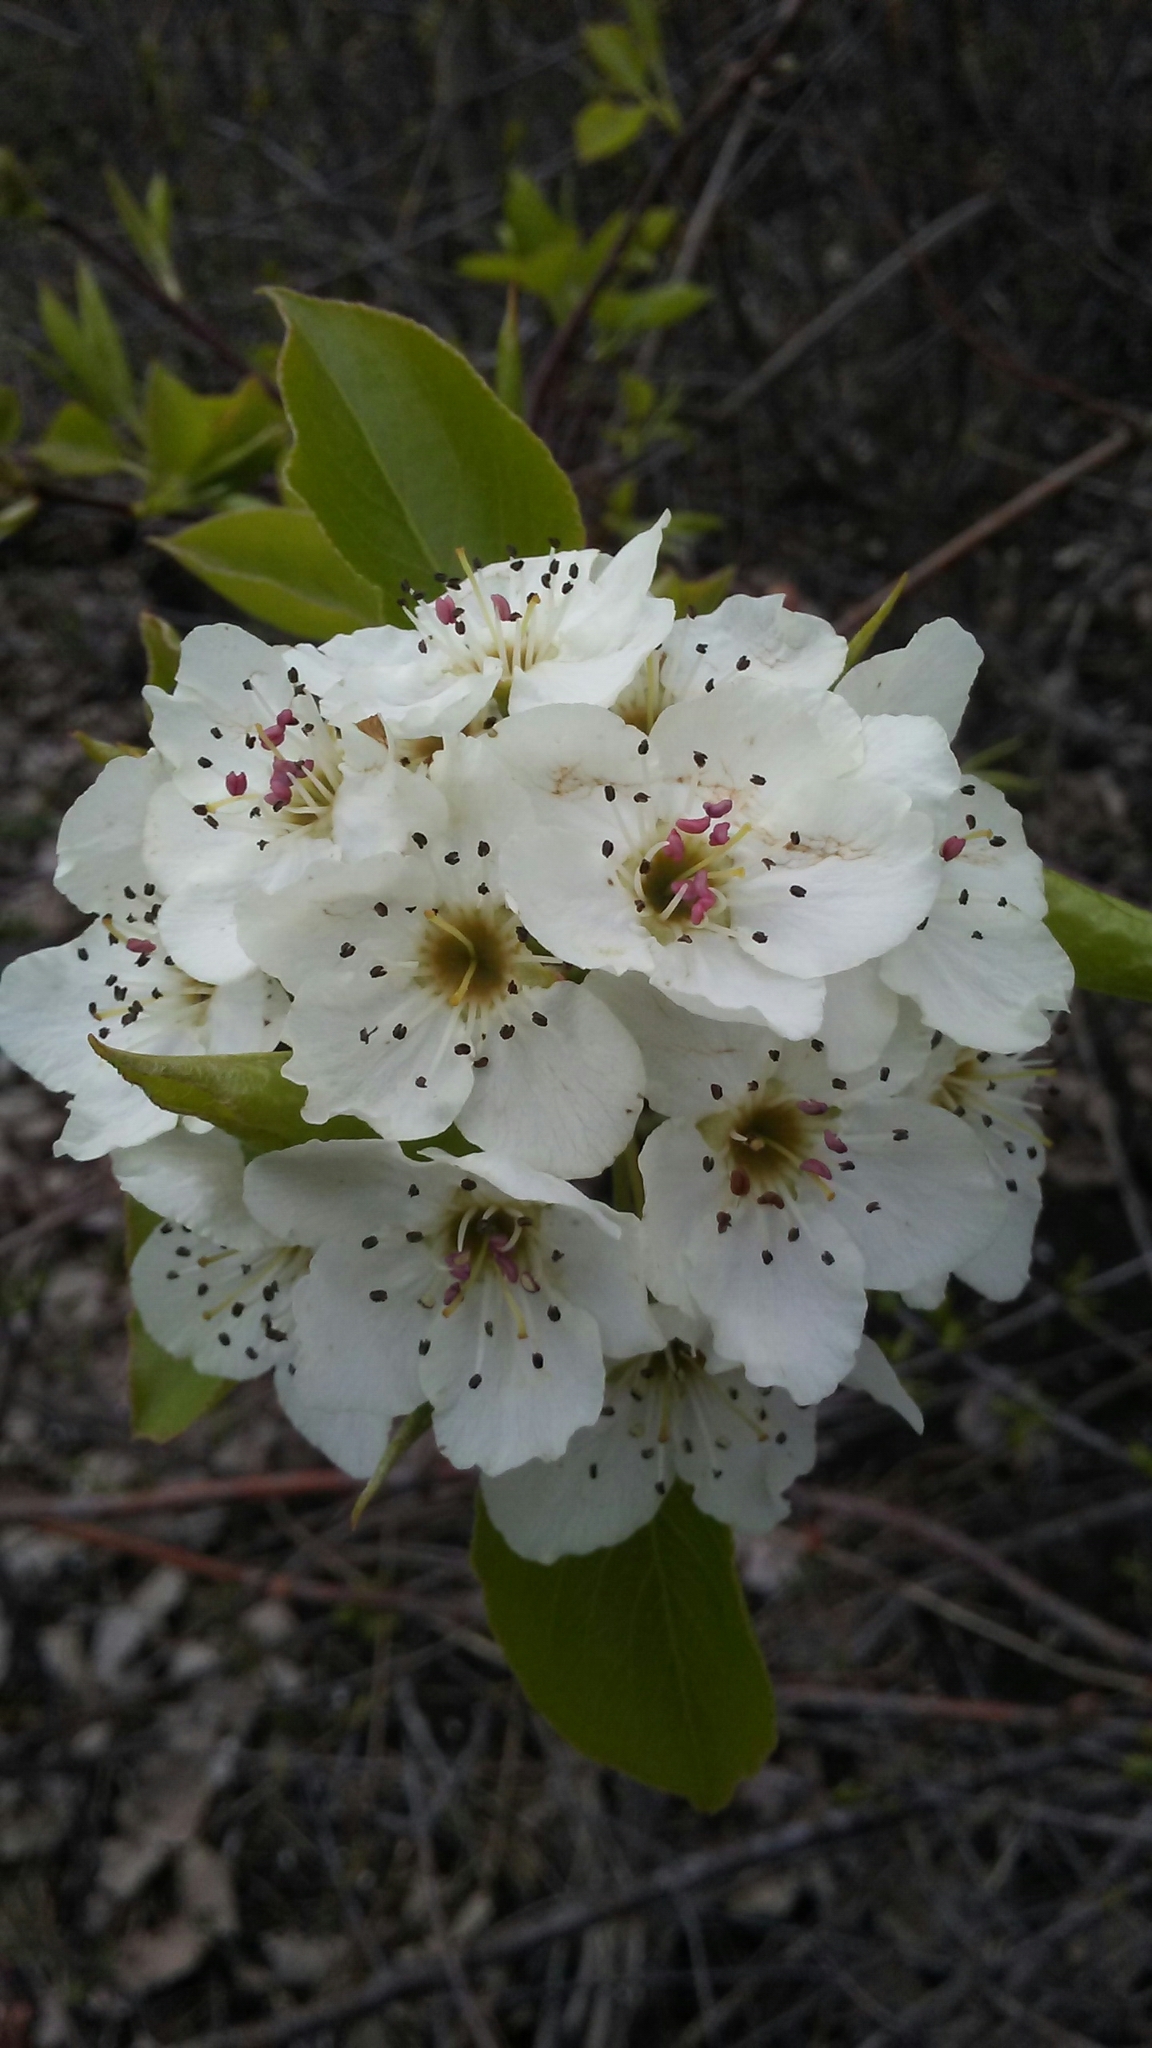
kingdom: Plantae
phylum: Tracheophyta
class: Magnoliopsida
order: Rosales
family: Rosaceae
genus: Pyrus
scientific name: Pyrus calleryana
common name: Callery pear
